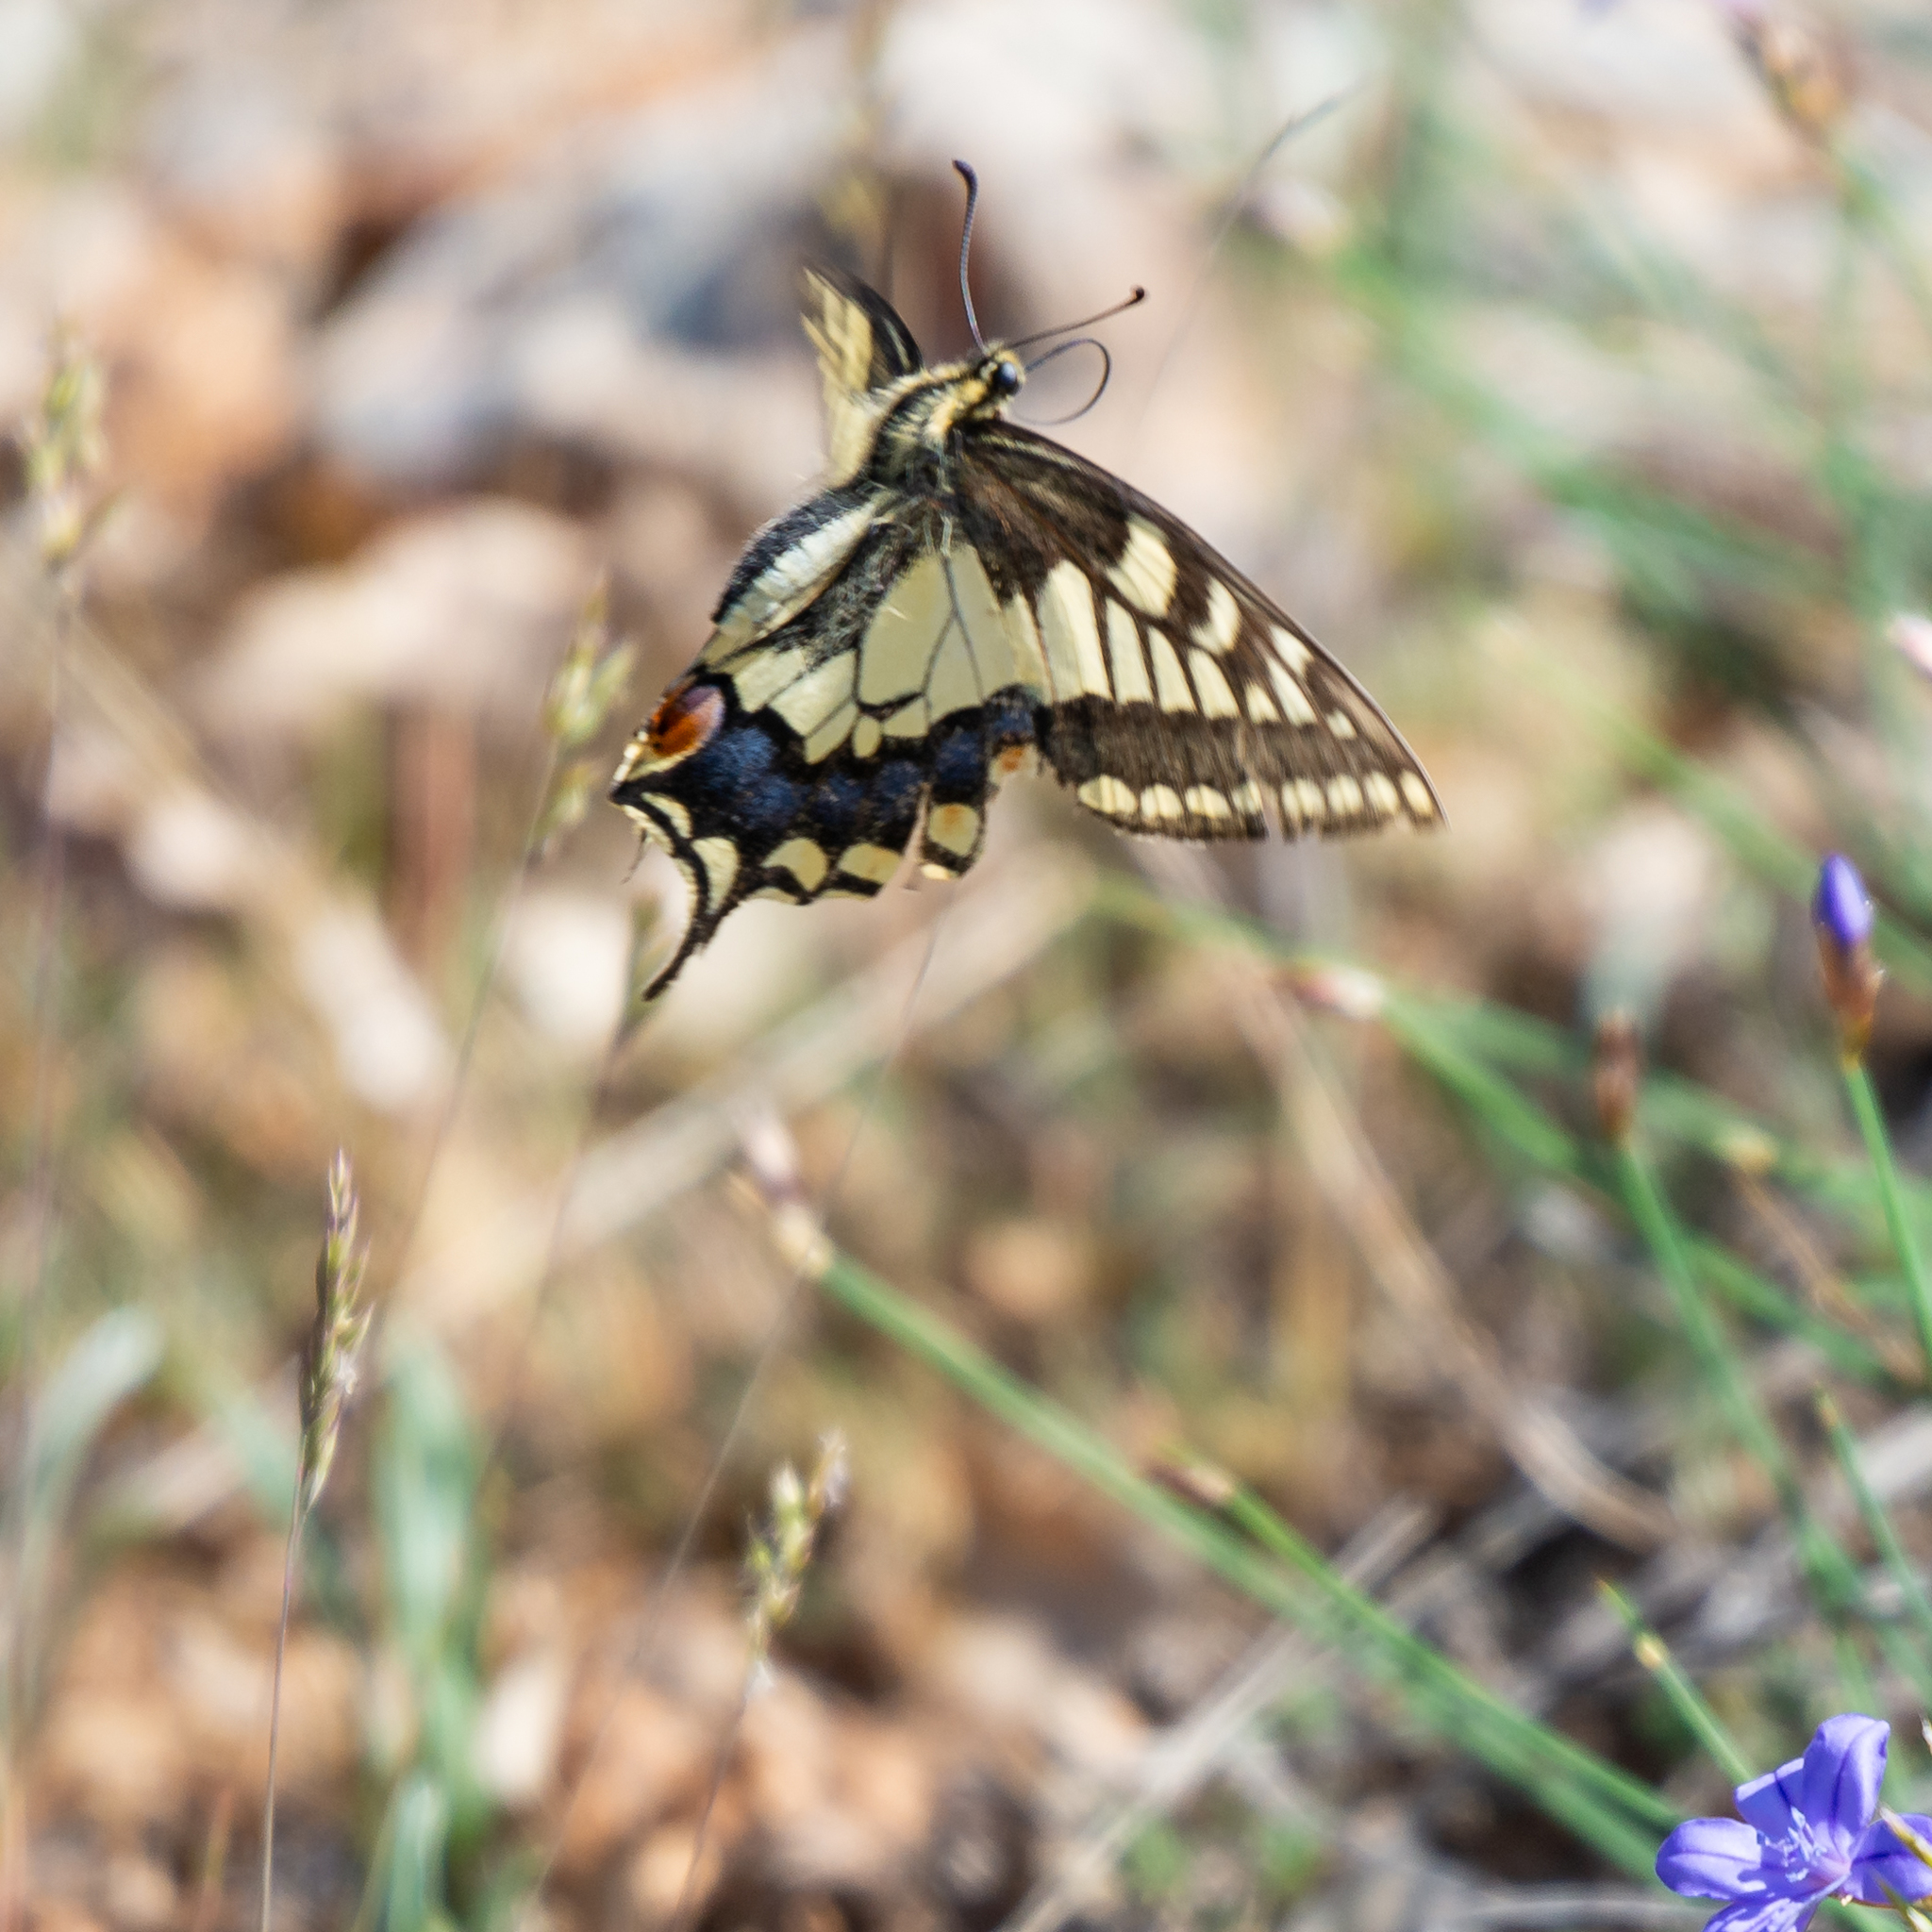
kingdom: Animalia
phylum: Arthropoda
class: Insecta
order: Lepidoptera
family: Papilionidae
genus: Papilio
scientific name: Papilio machaon
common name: Swallowtail
